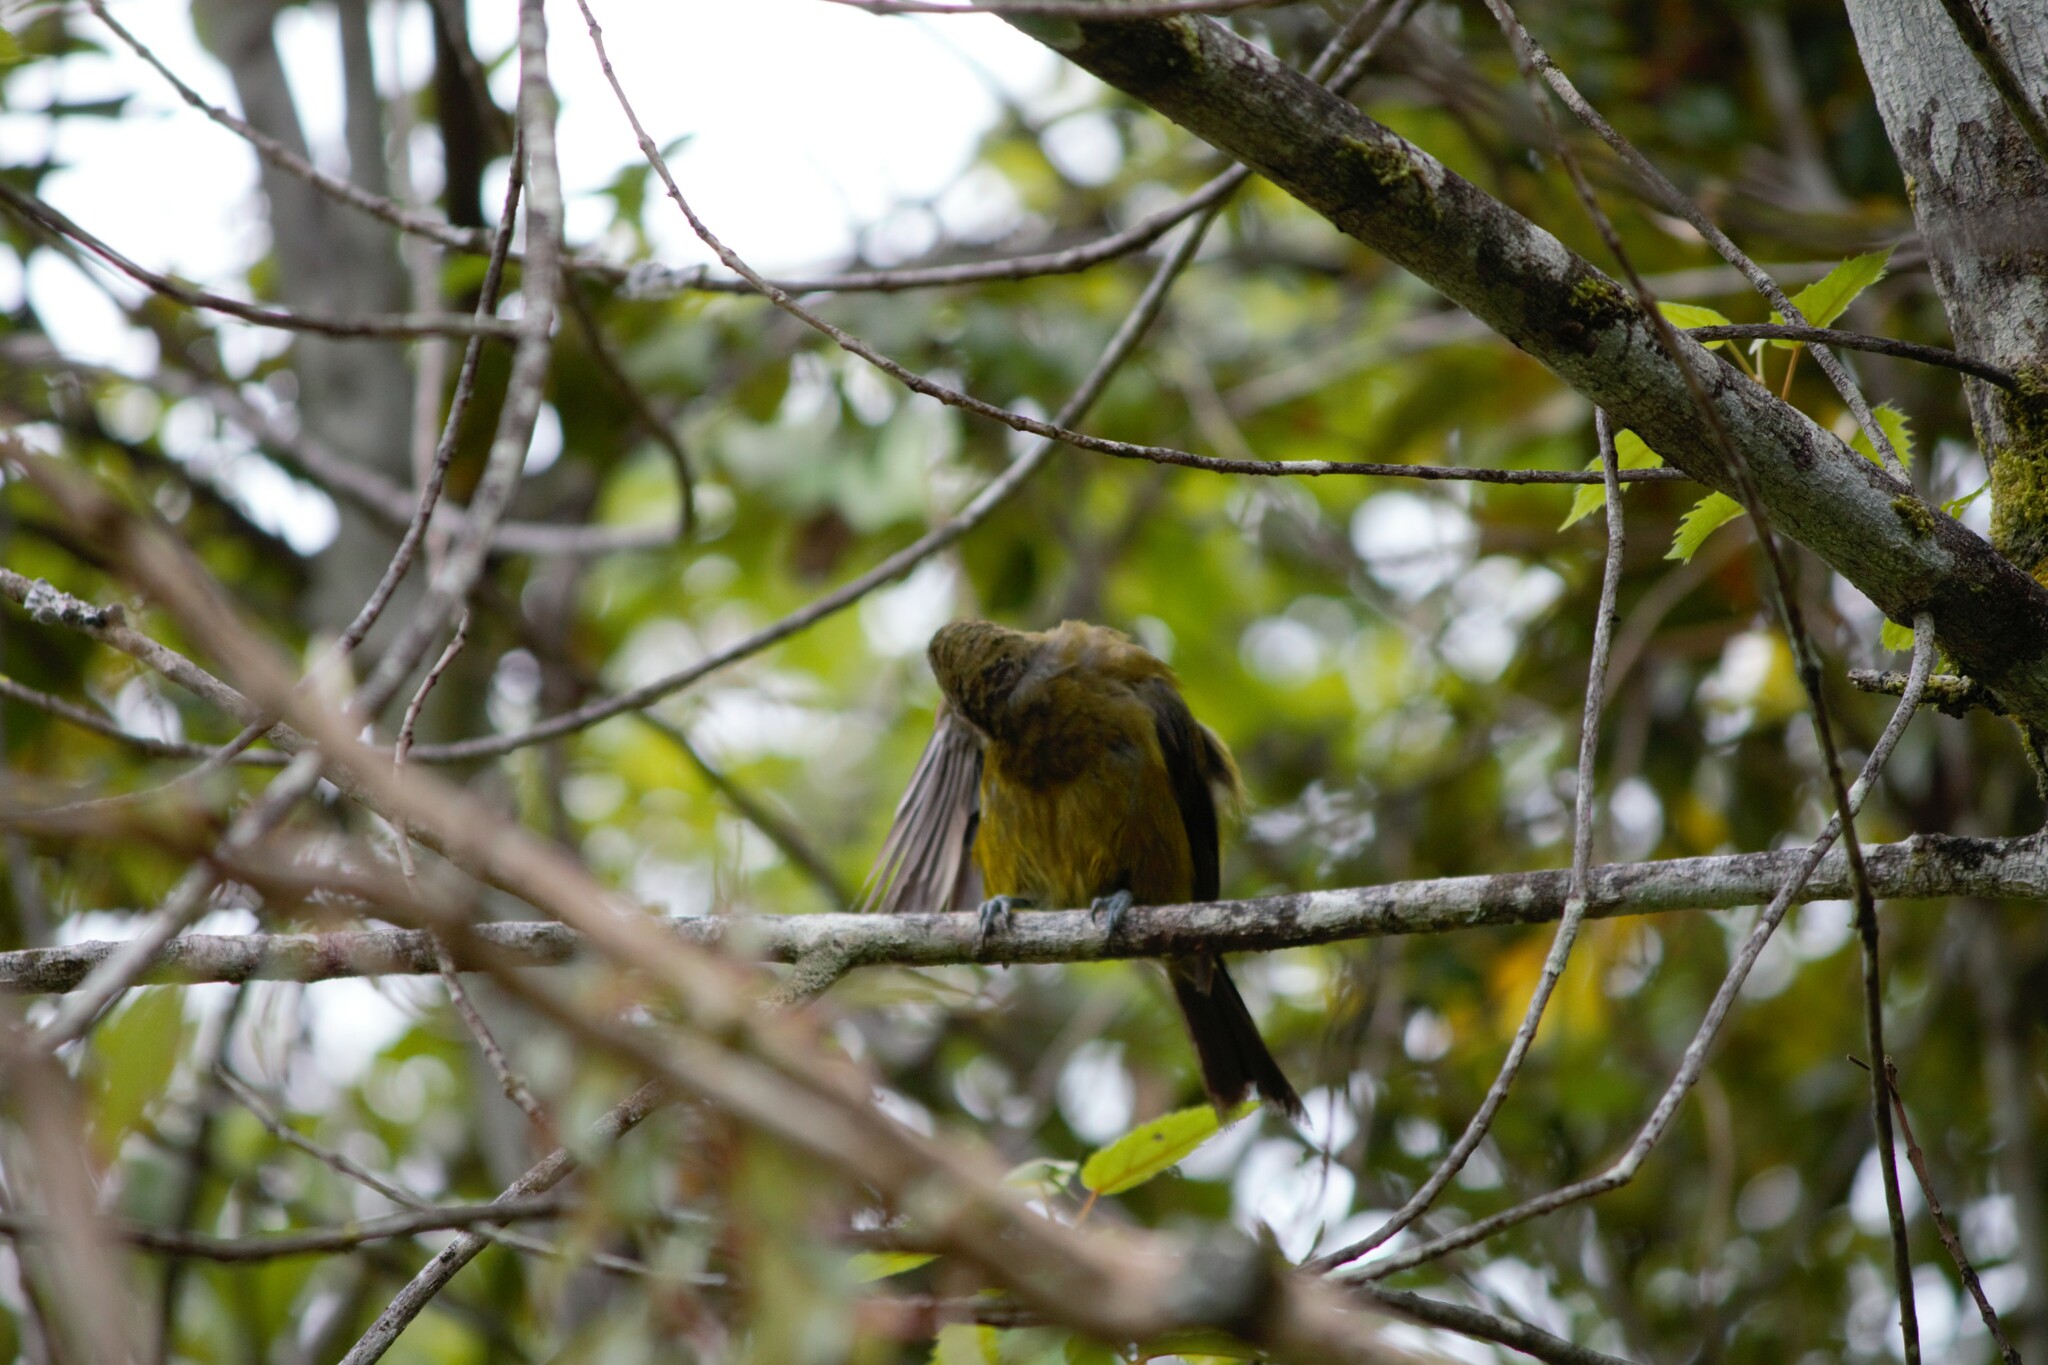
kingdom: Animalia
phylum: Chordata
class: Aves
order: Passeriformes
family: Meliphagidae
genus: Anthornis
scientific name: Anthornis melanura
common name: New zealand bellbird
